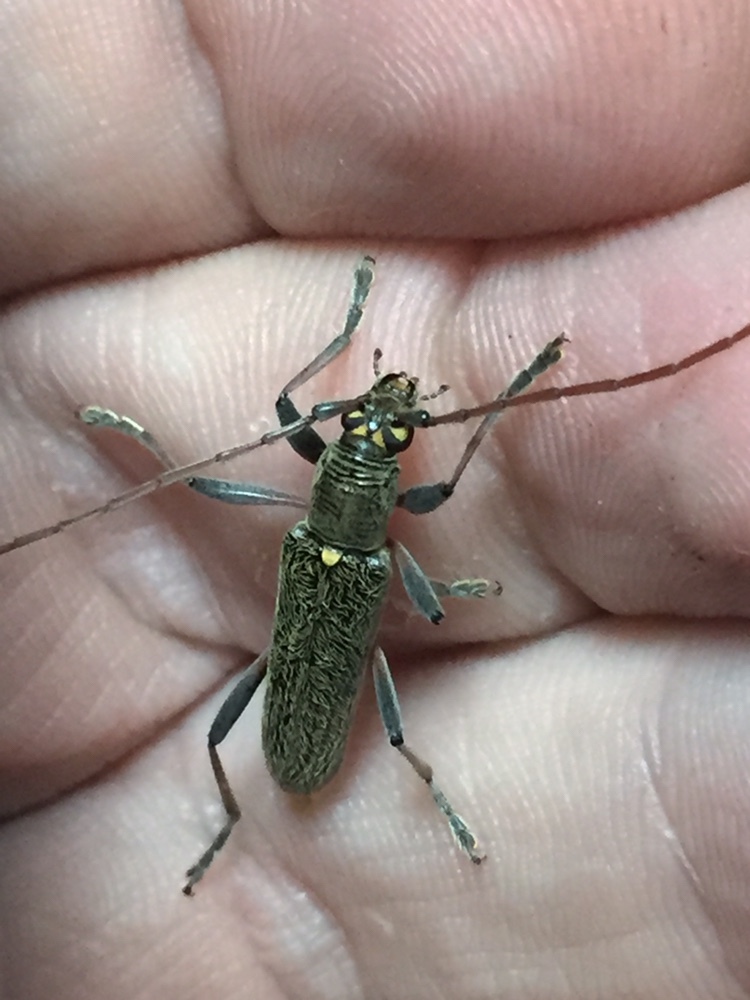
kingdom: Animalia
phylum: Arthropoda
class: Insecta
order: Coleoptera
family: Cerambycidae
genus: Oemona
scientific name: Oemona hirta
